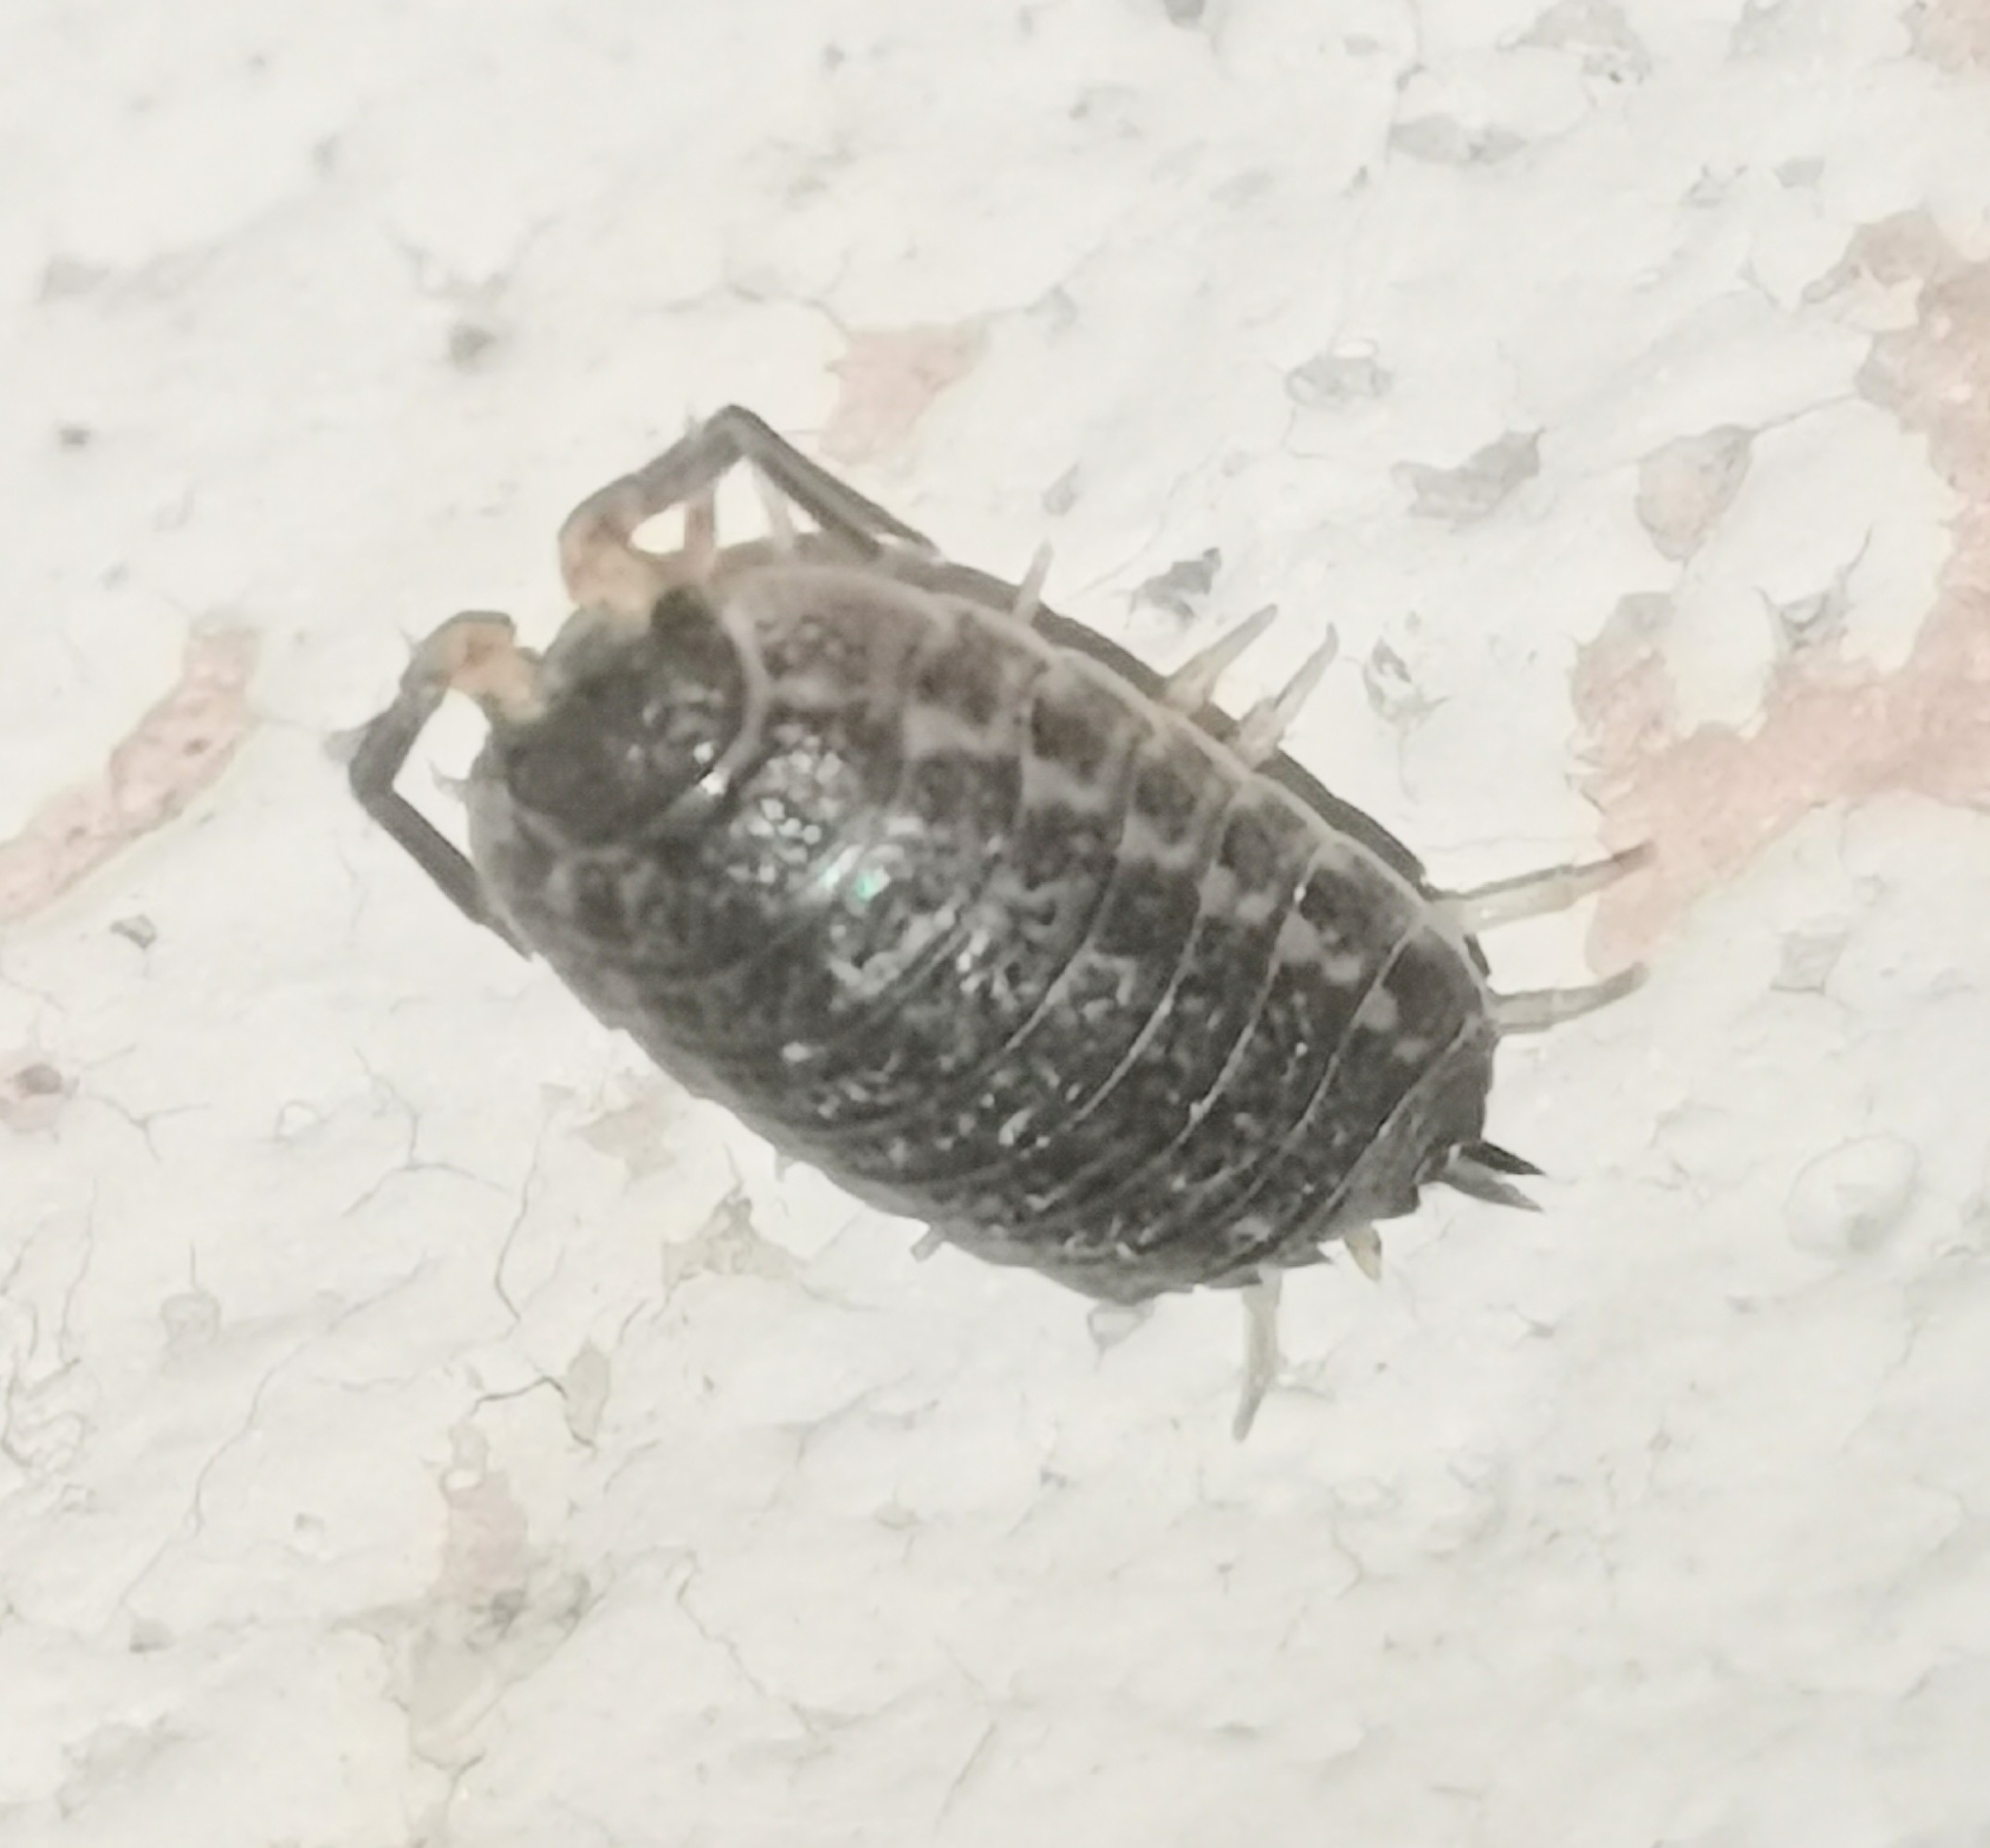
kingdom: Animalia
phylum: Arthropoda
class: Malacostraca
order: Isopoda
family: Trachelipodidae
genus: Trachelipus
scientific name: Trachelipus rathkii
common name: Isopod
